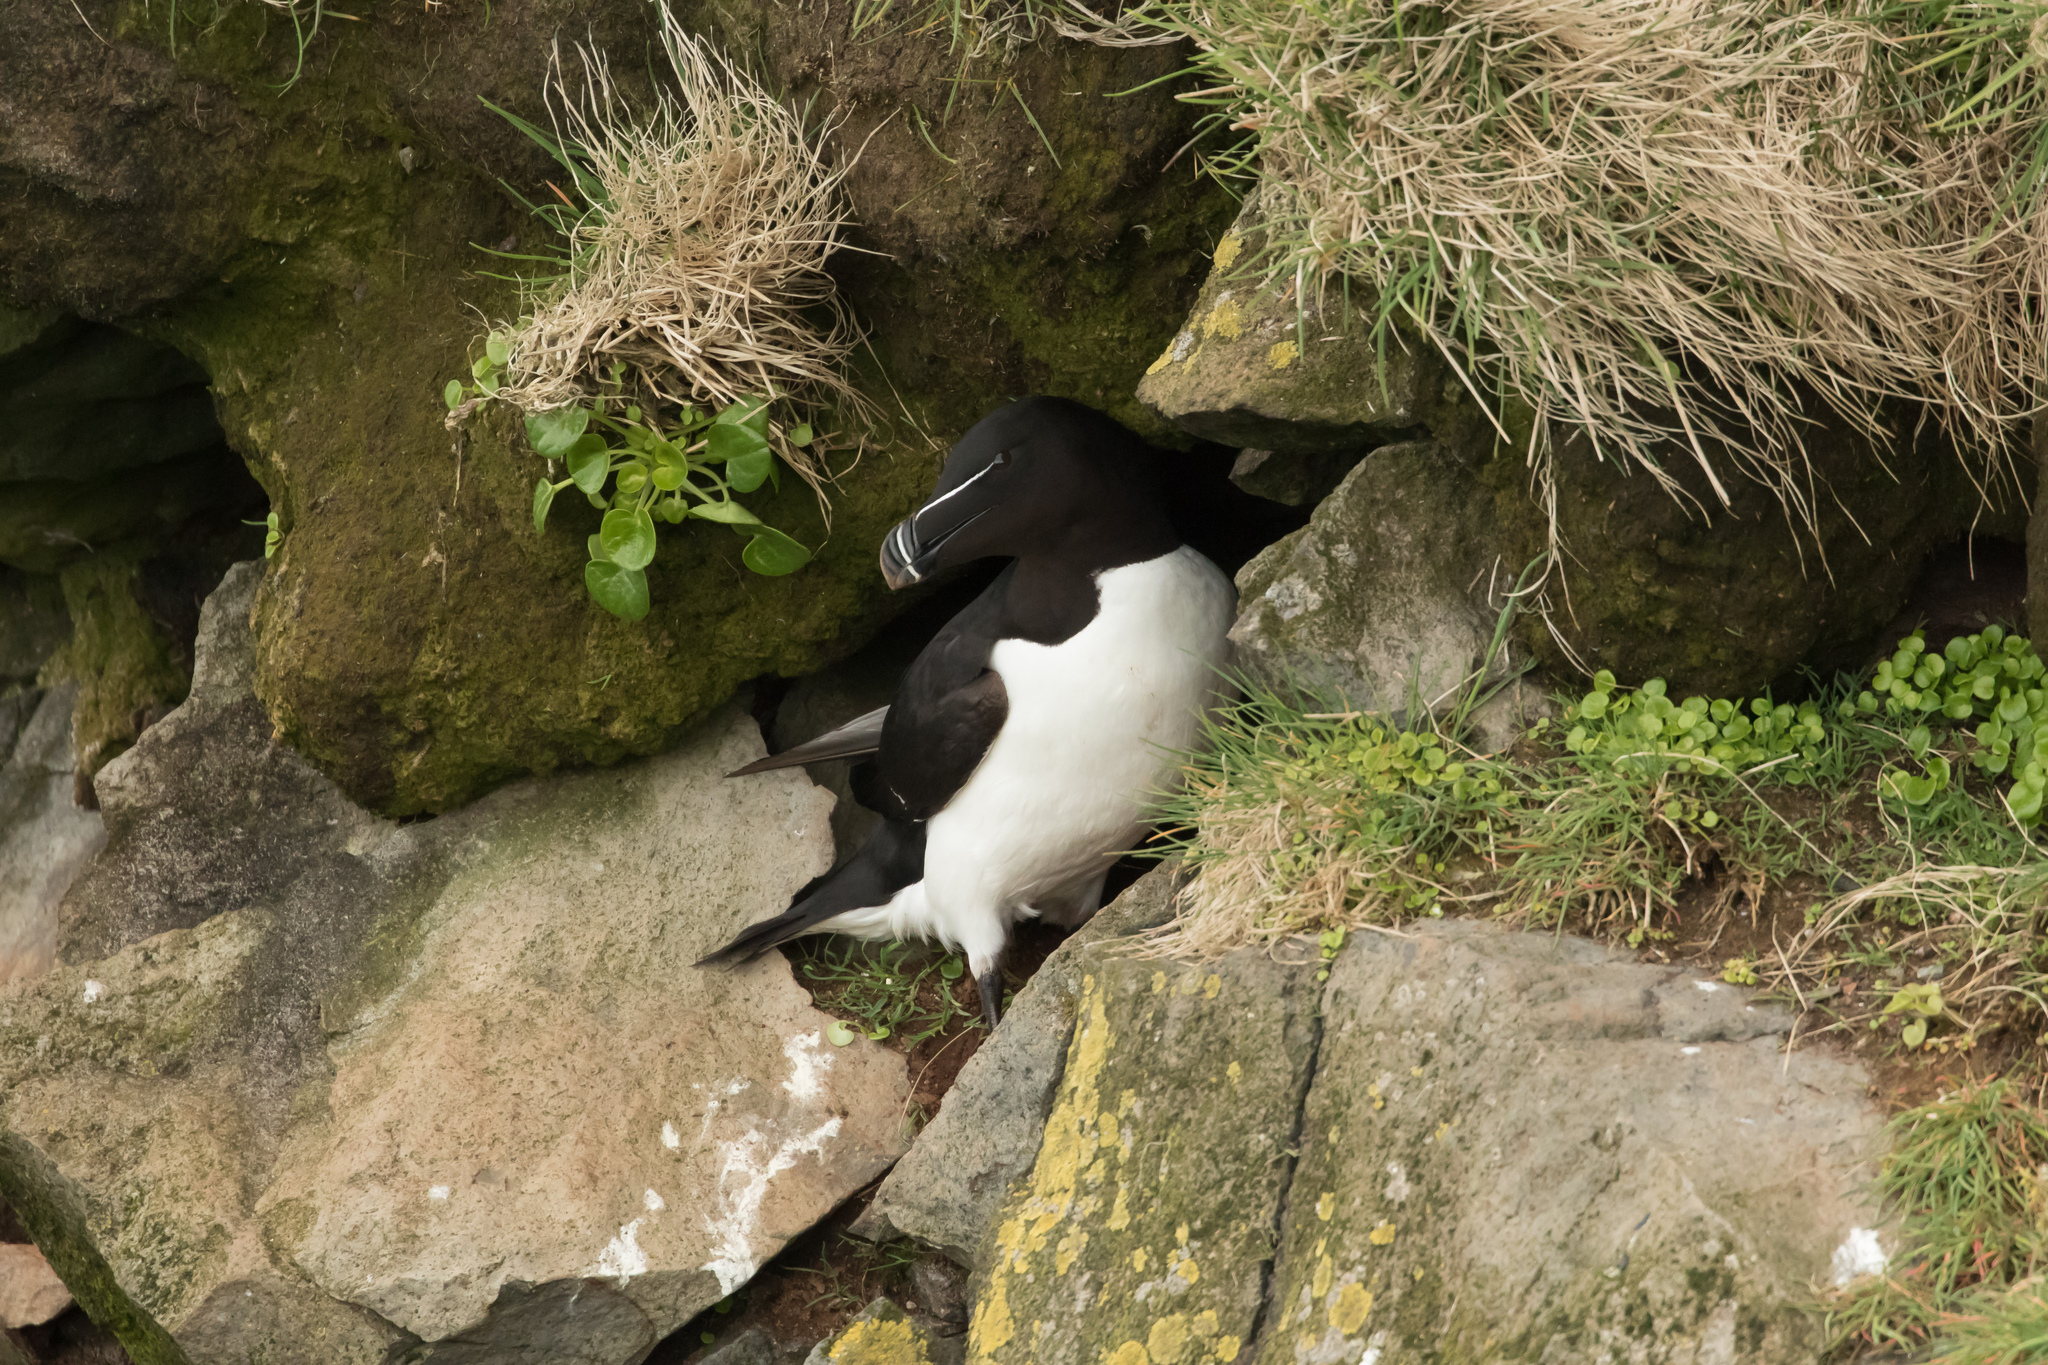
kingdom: Animalia
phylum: Chordata
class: Aves
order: Charadriiformes
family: Alcidae
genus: Alca
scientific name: Alca torda
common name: Razorbill
